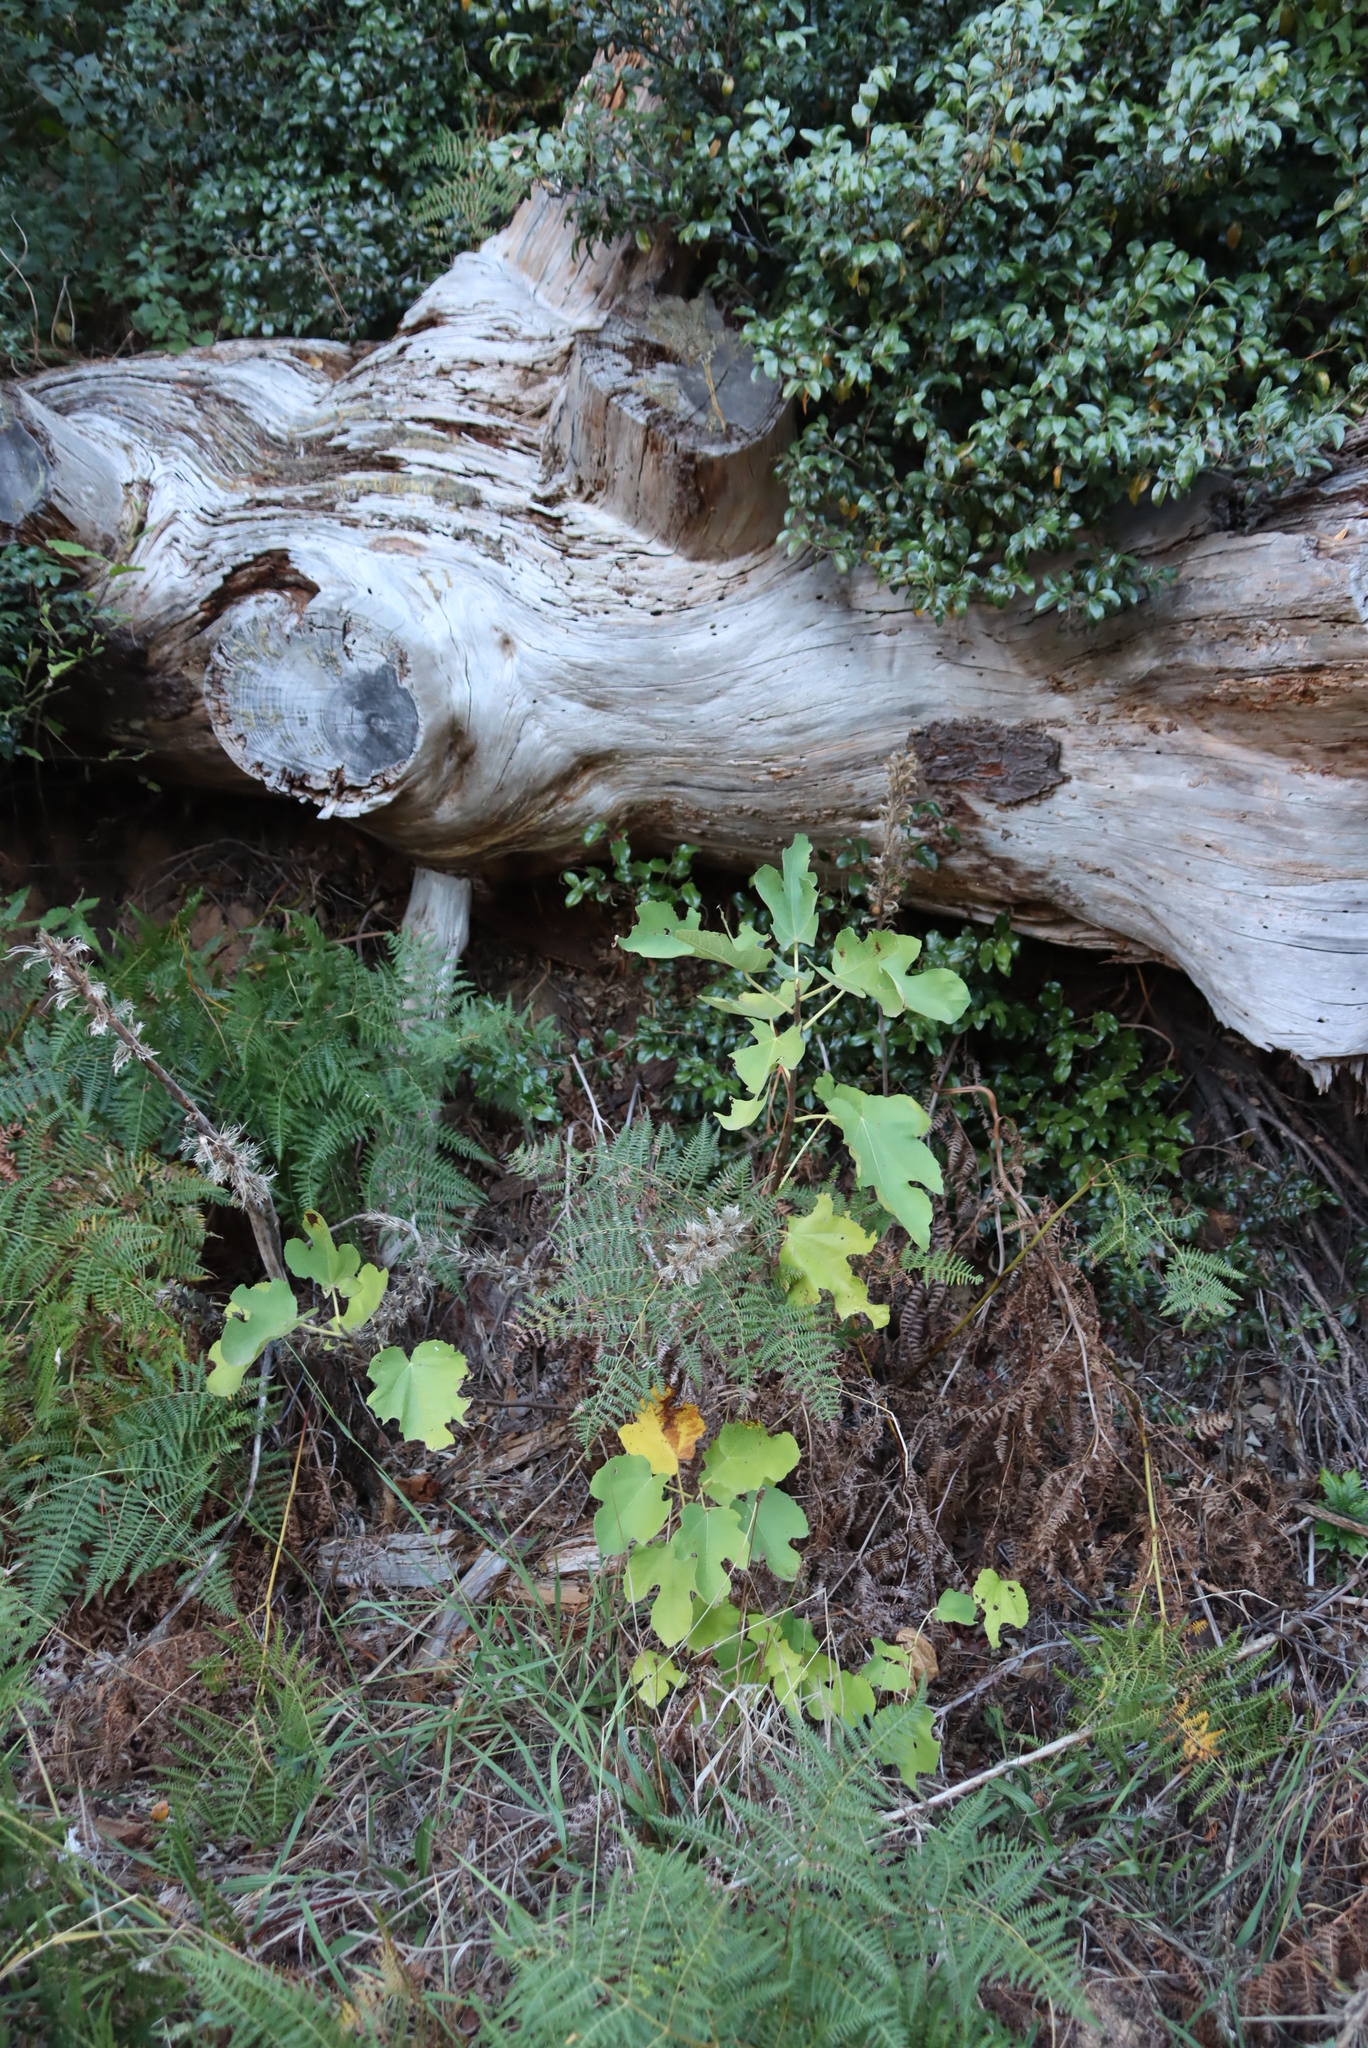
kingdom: Plantae
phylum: Tracheophyta
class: Magnoliopsida
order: Rosales
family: Moraceae
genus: Ficus
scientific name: Ficus carica
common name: Fig
